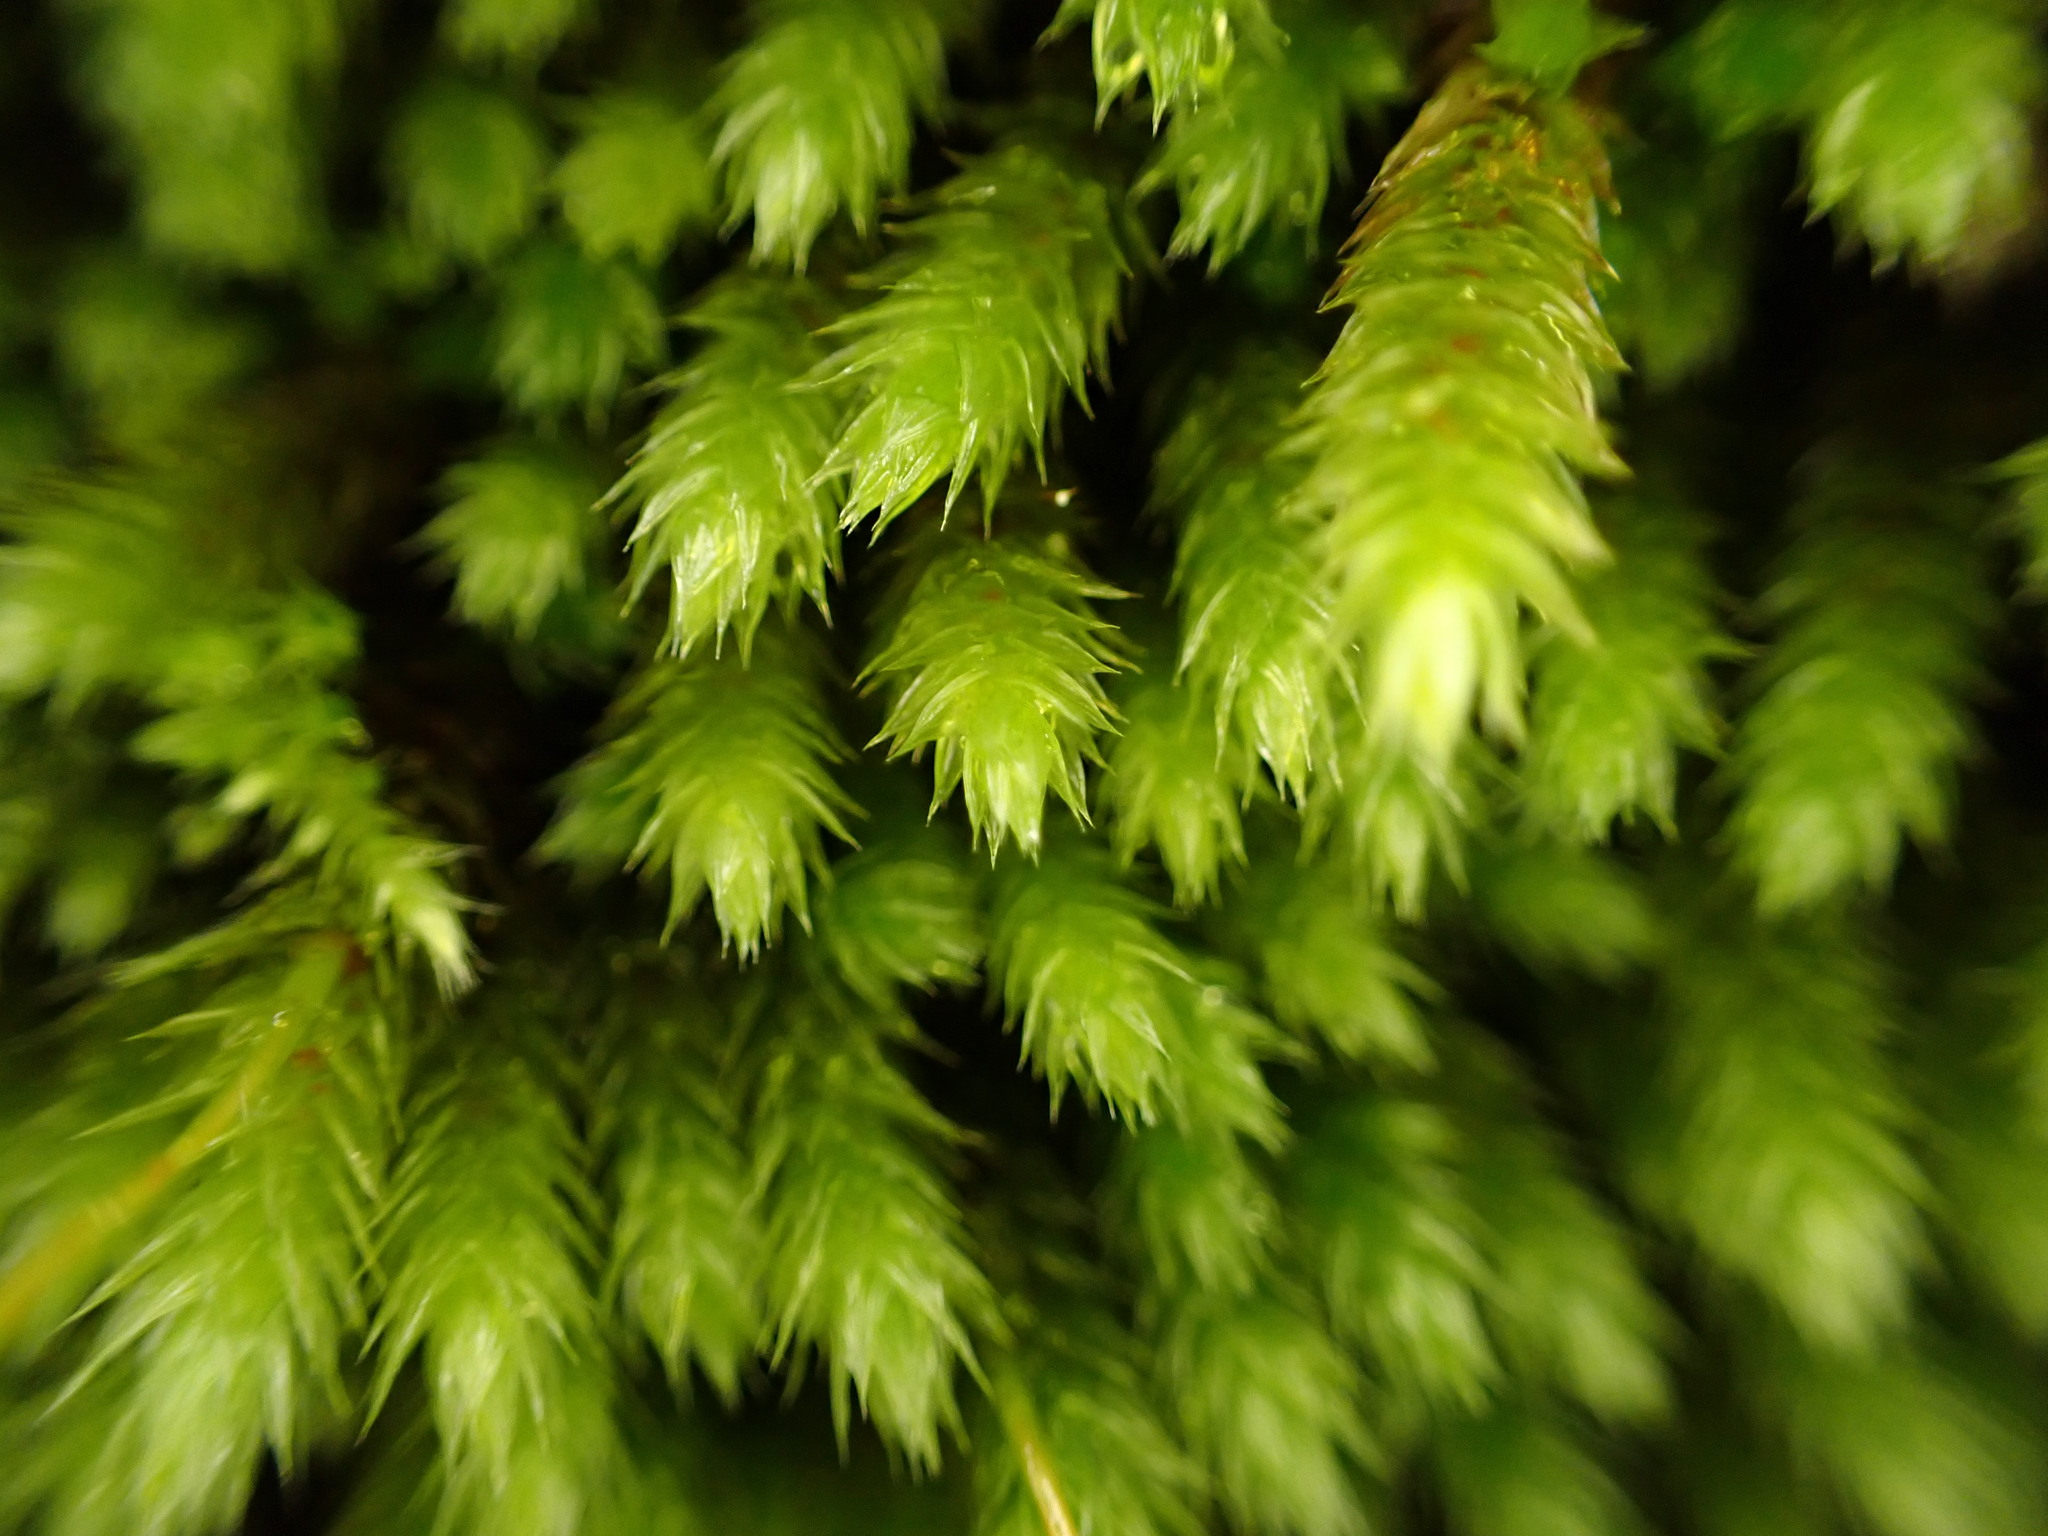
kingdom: Plantae
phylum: Bryophyta
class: Bryopsida
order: Hypnales
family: Leucodontaceae
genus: Leucodon
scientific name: Leucodon sciuroides
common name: Squirrel-tail moss
